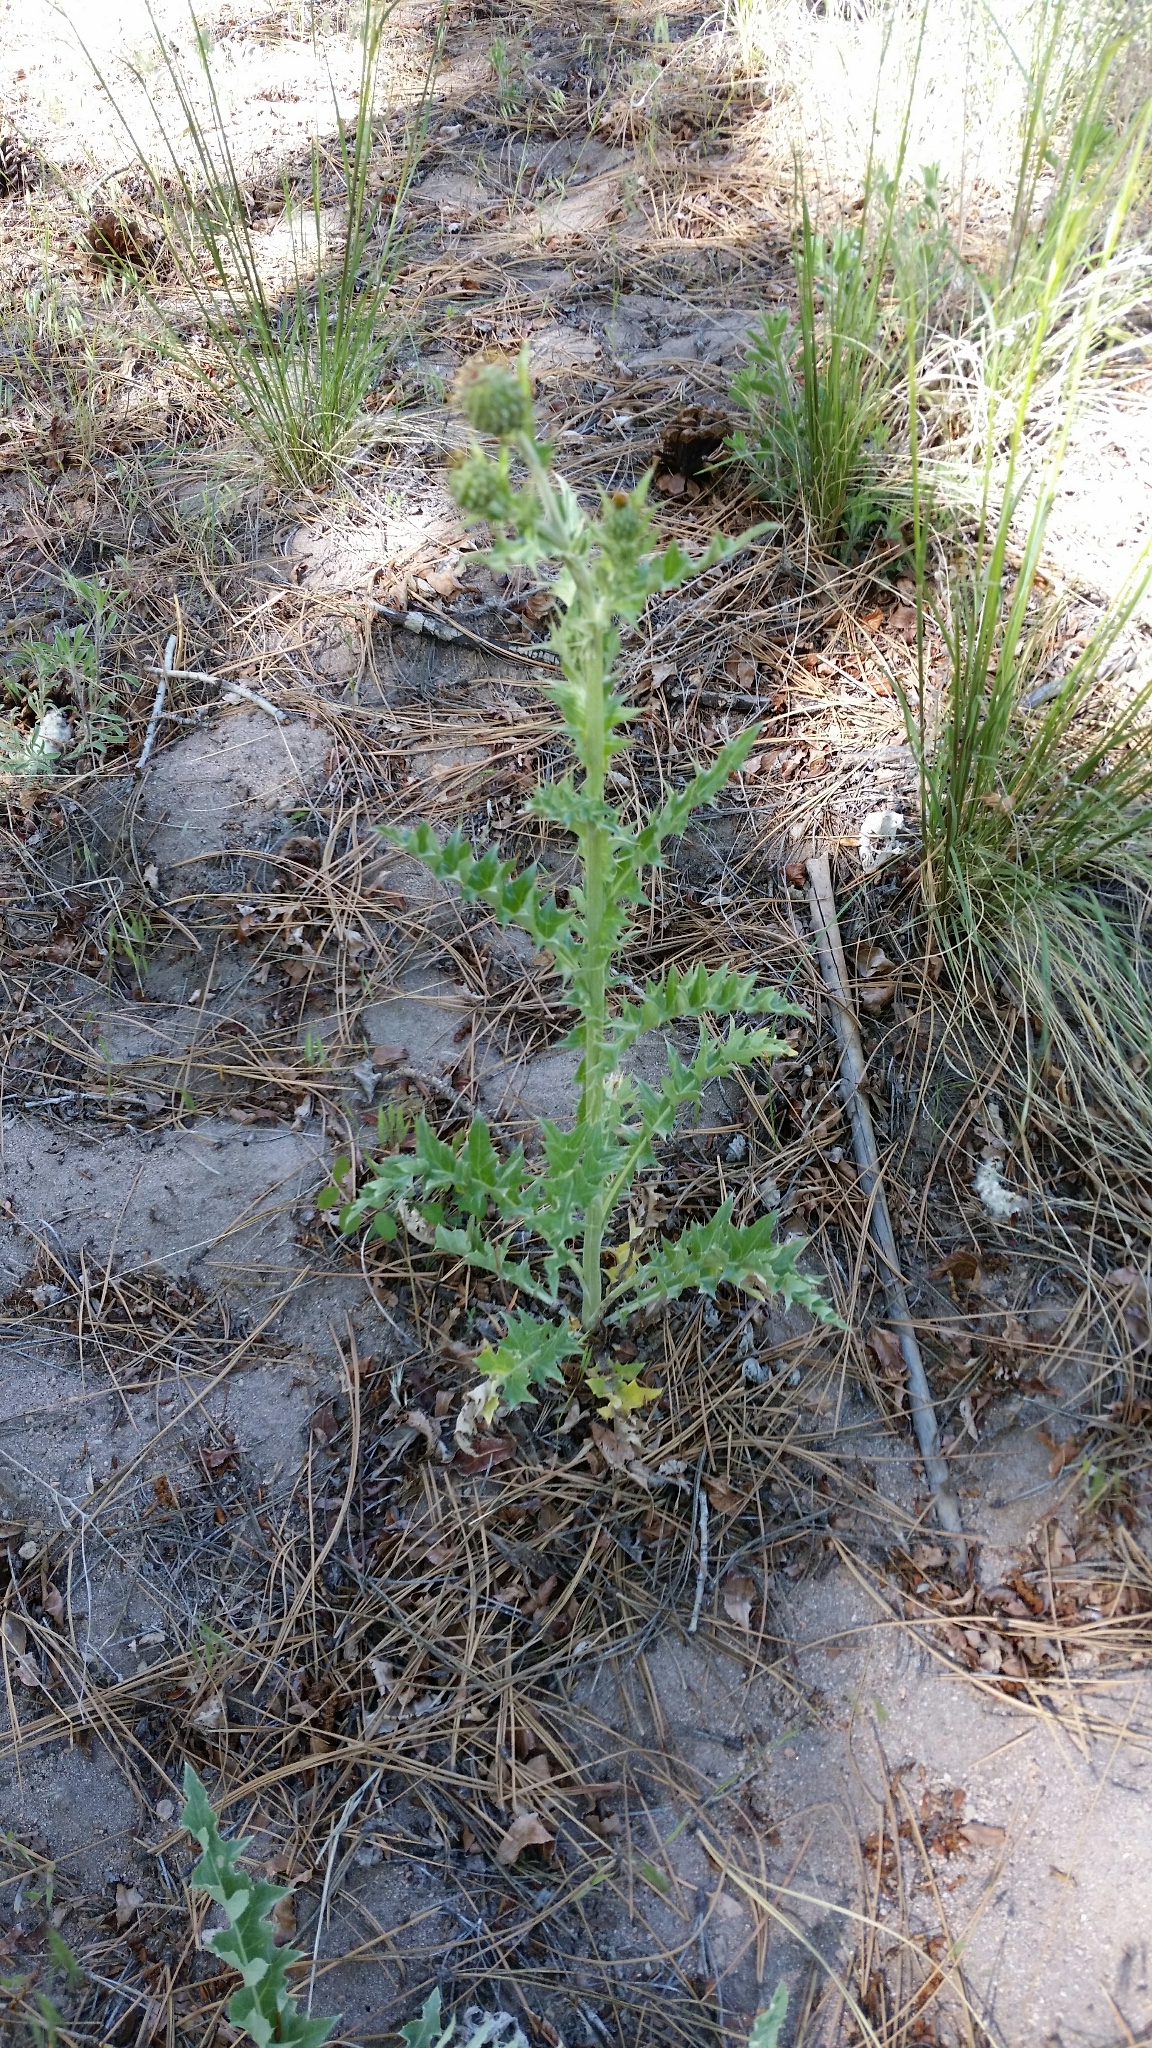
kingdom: Plantae
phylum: Tracheophyta
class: Magnoliopsida
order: Asterales
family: Asteraceae
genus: Cirsium
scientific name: Cirsium undulatum
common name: Pasture thistle
